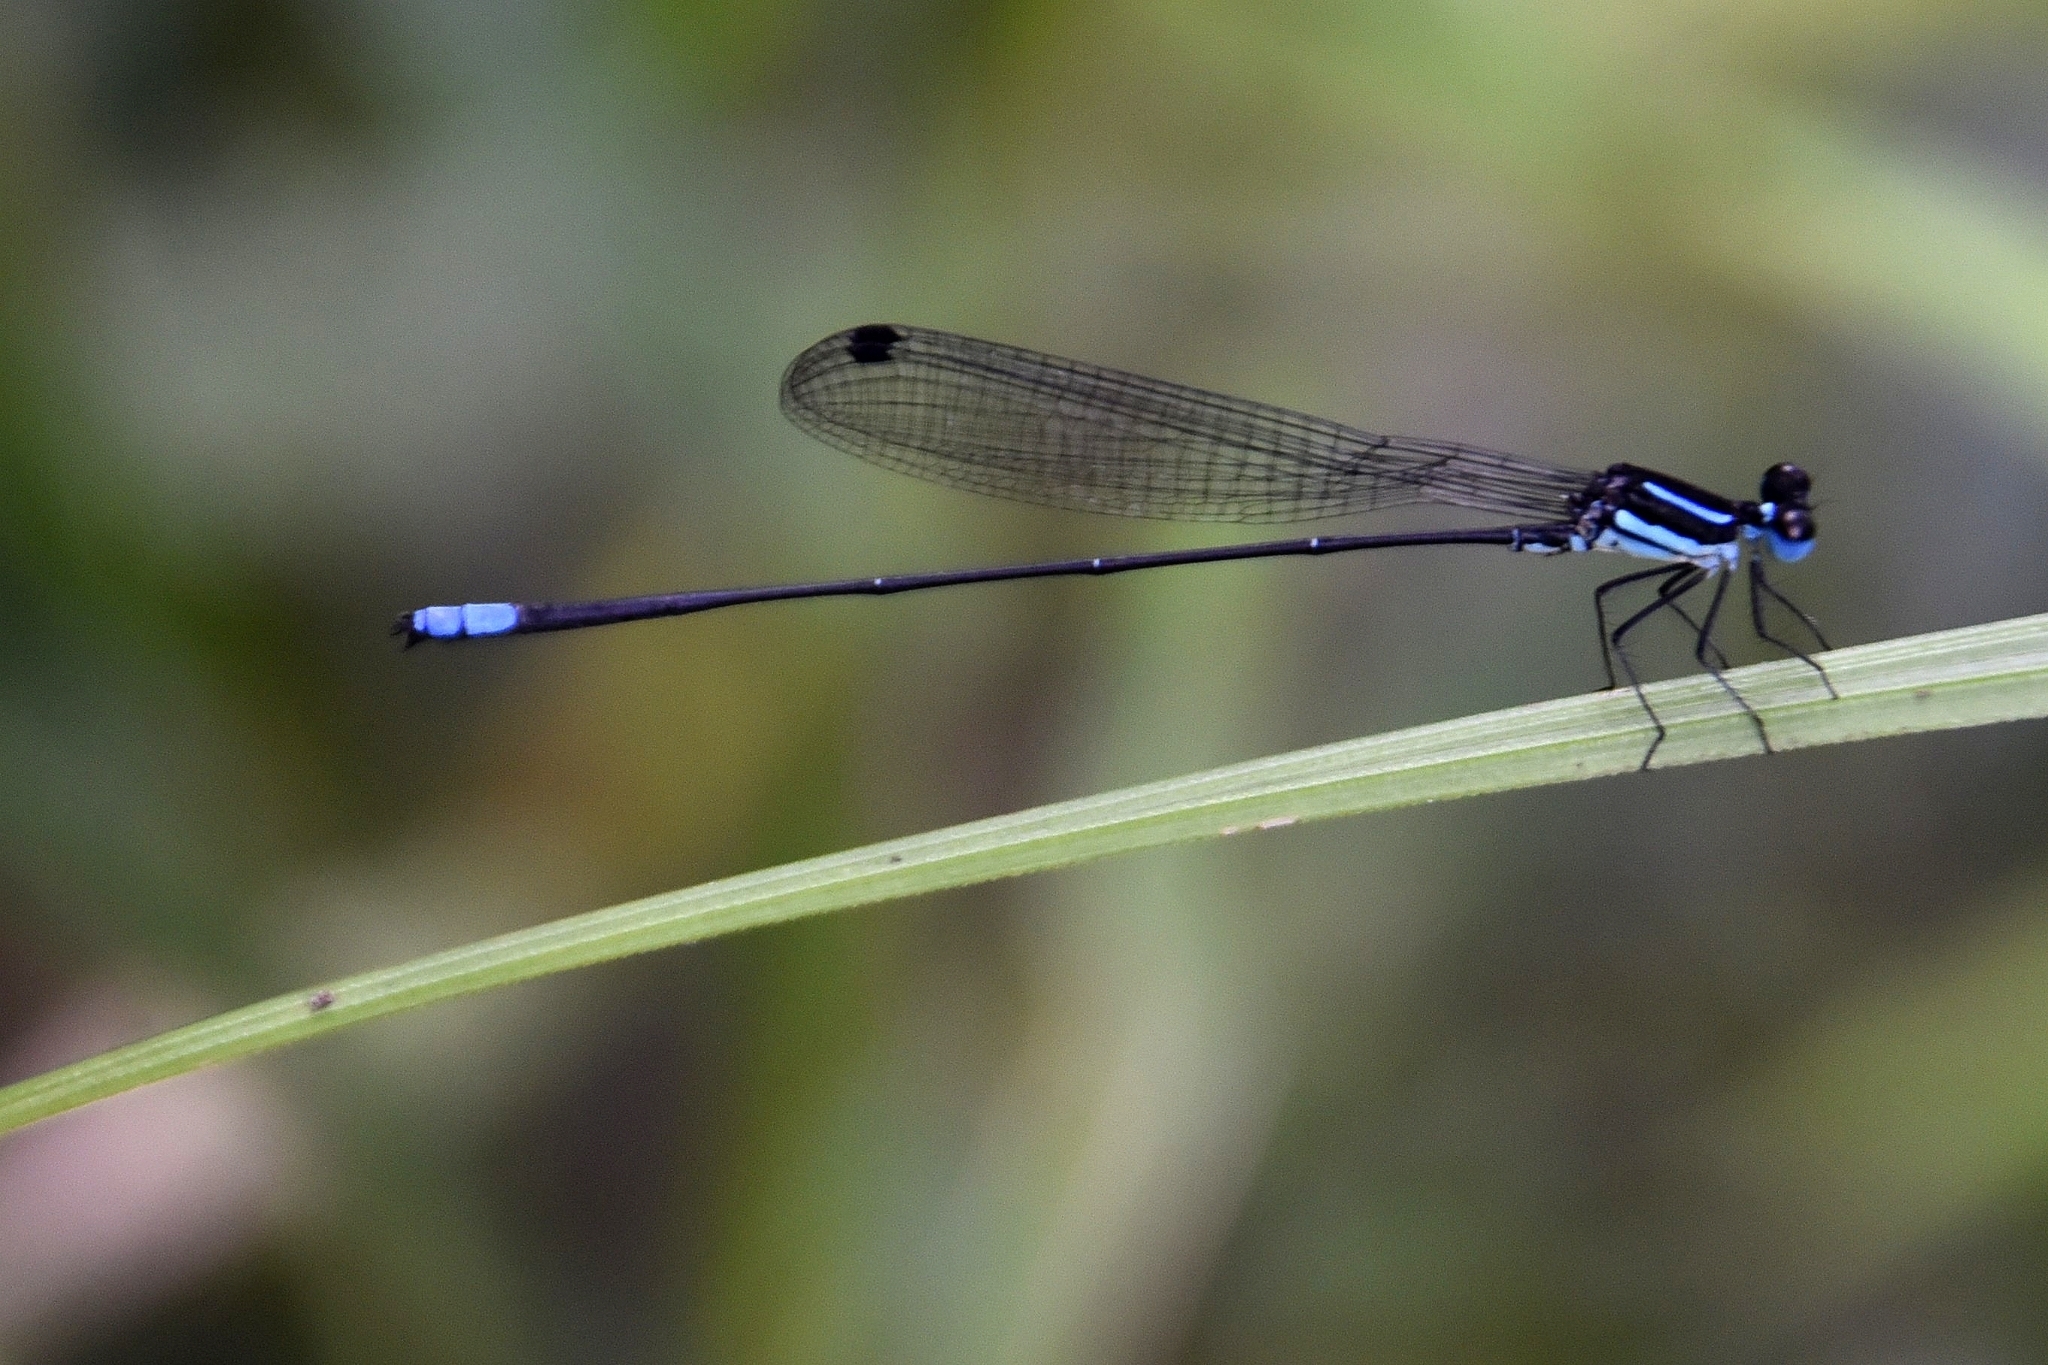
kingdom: Animalia
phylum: Arthropoda
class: Insecta
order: Odonata
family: Platycnemididae
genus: Melanoneura
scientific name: Melanoneura bilineata
